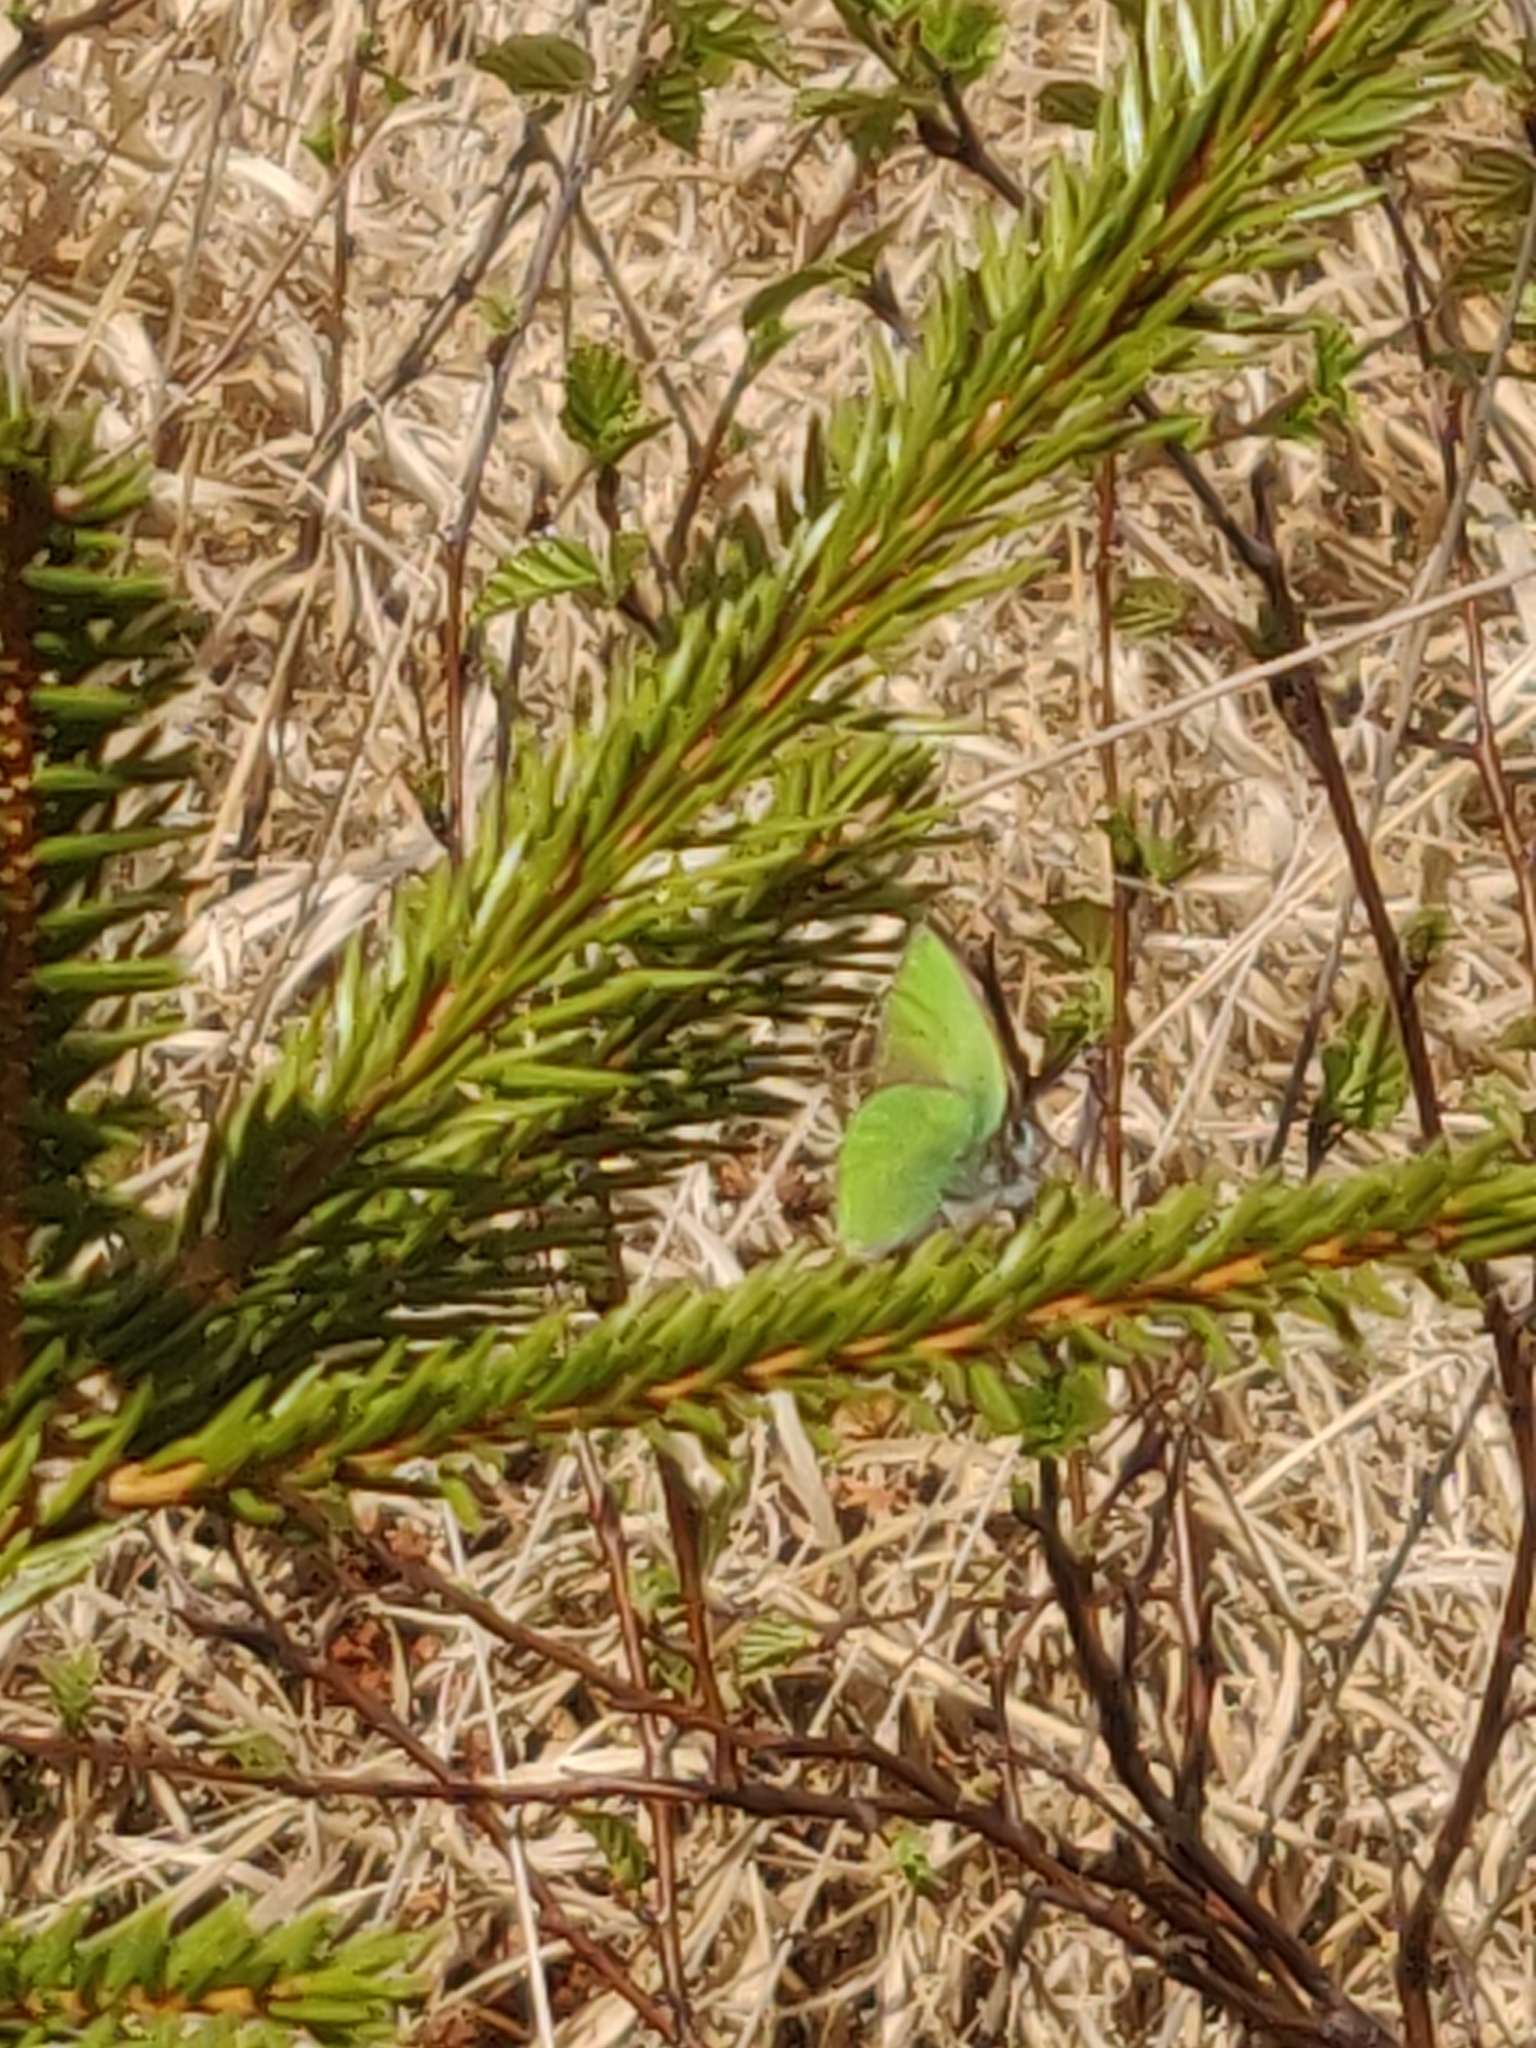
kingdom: Animalia
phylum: Arthropoda
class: Insecta
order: Lepidoptera
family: Lycaenidae
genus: Callophrys
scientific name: Callophrys rubi
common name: Green hairstreak
